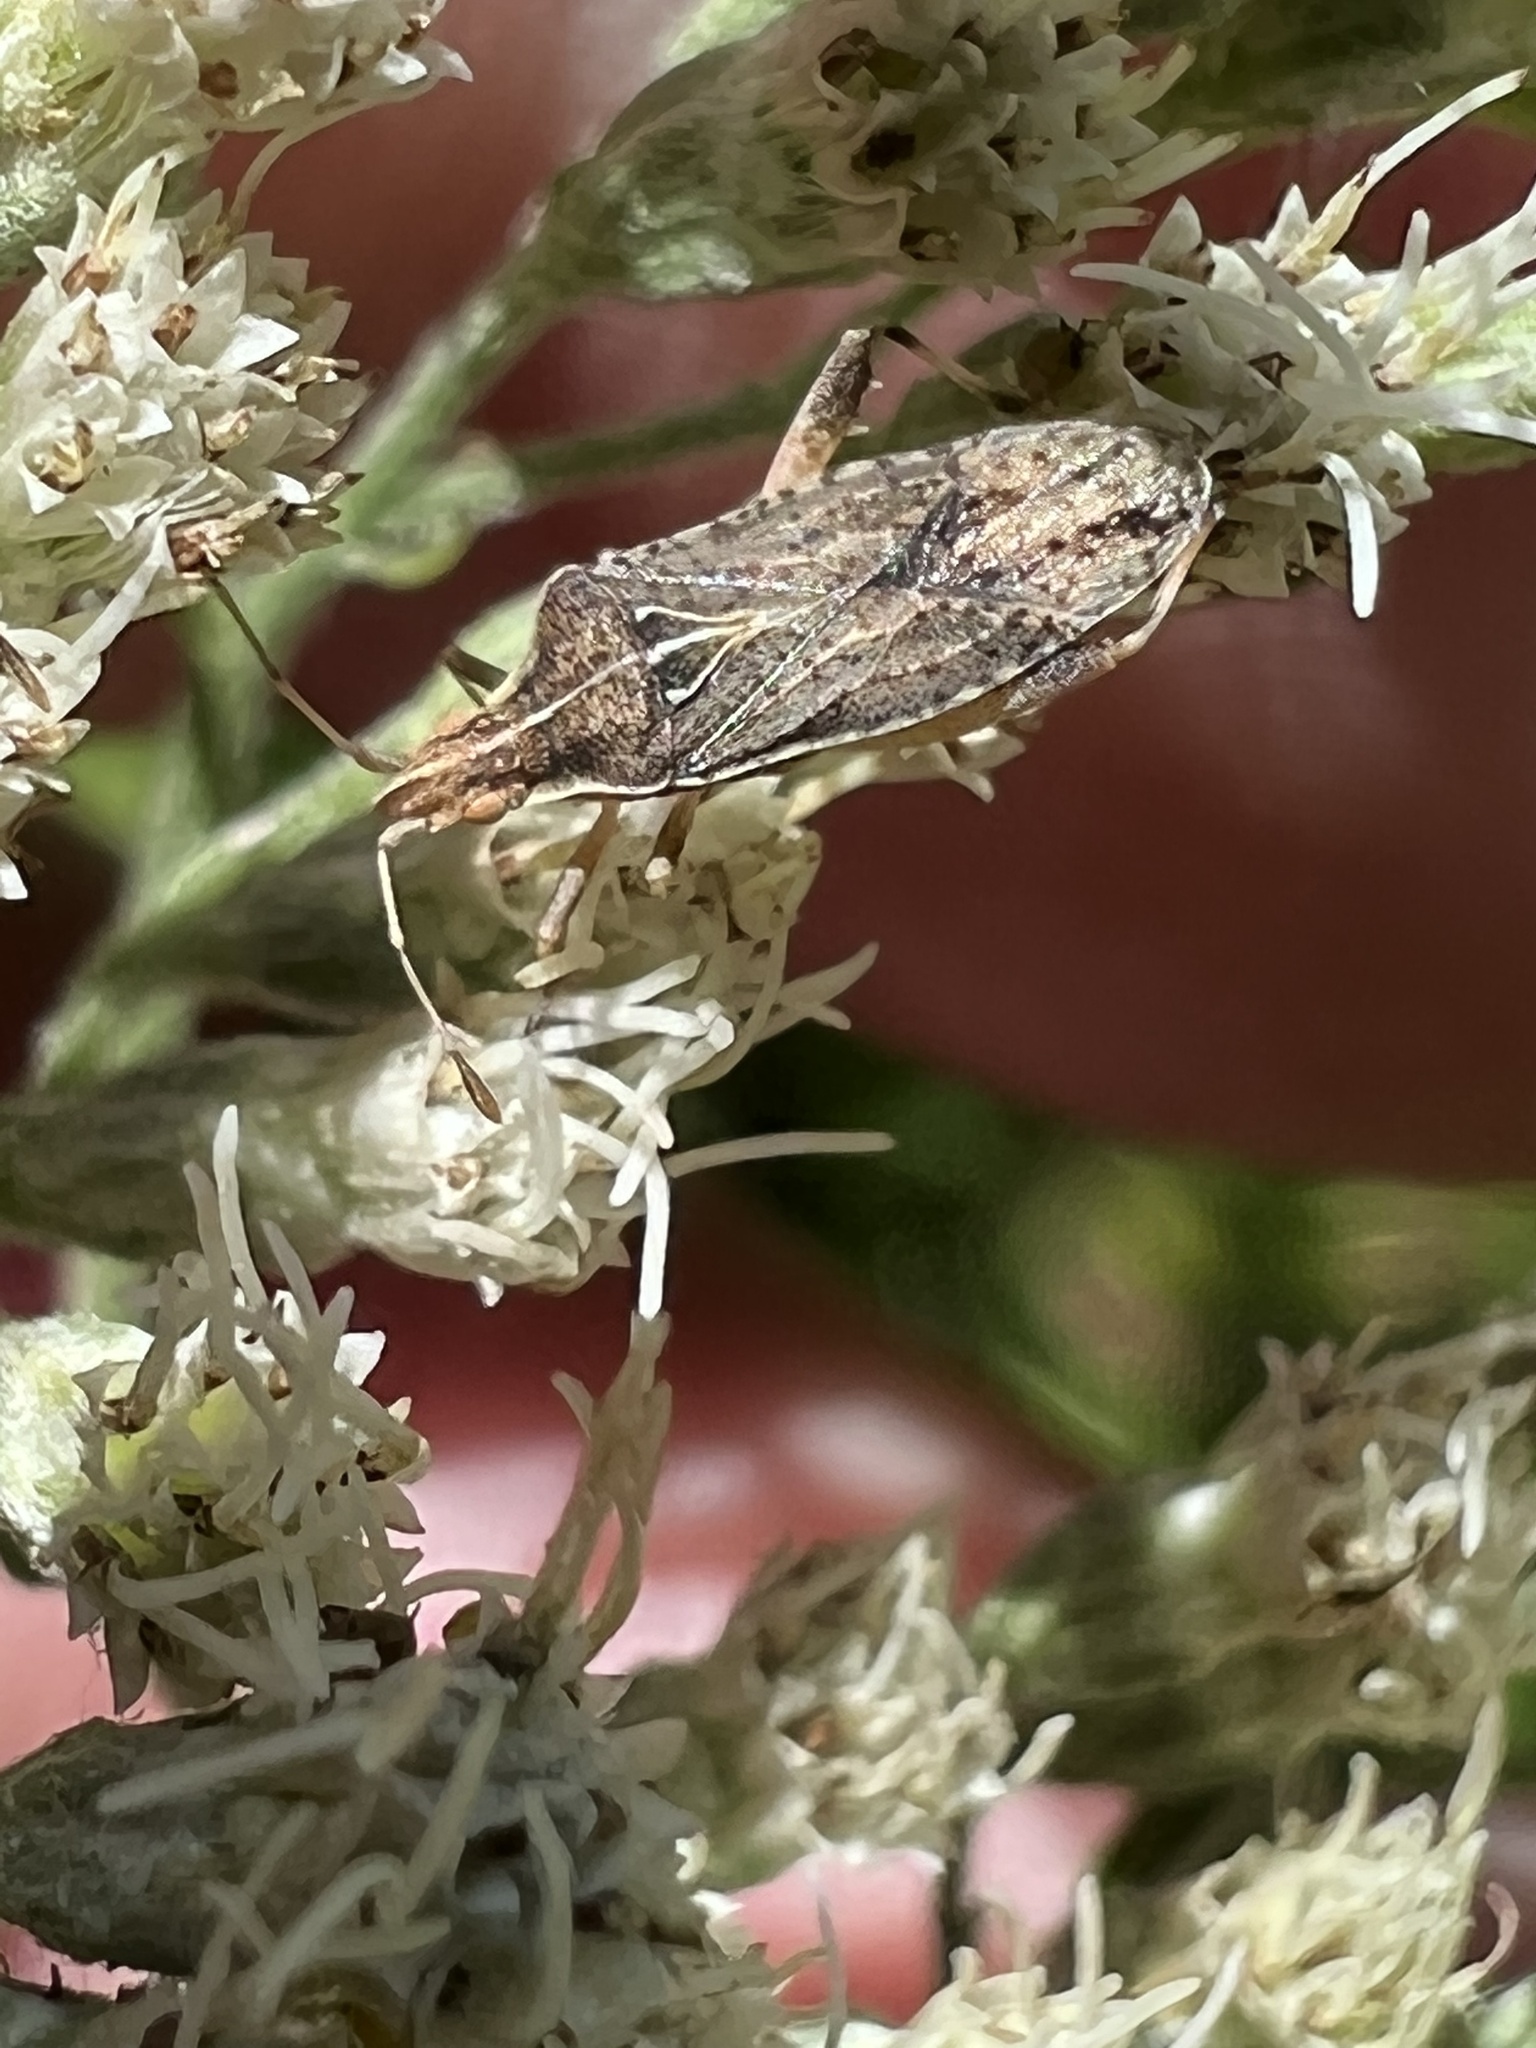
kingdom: Animalia
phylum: Arthropoda
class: Insecta
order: Hemiptera
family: Rhopalidae
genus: Harmostes
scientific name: Harmostes fraterculus
